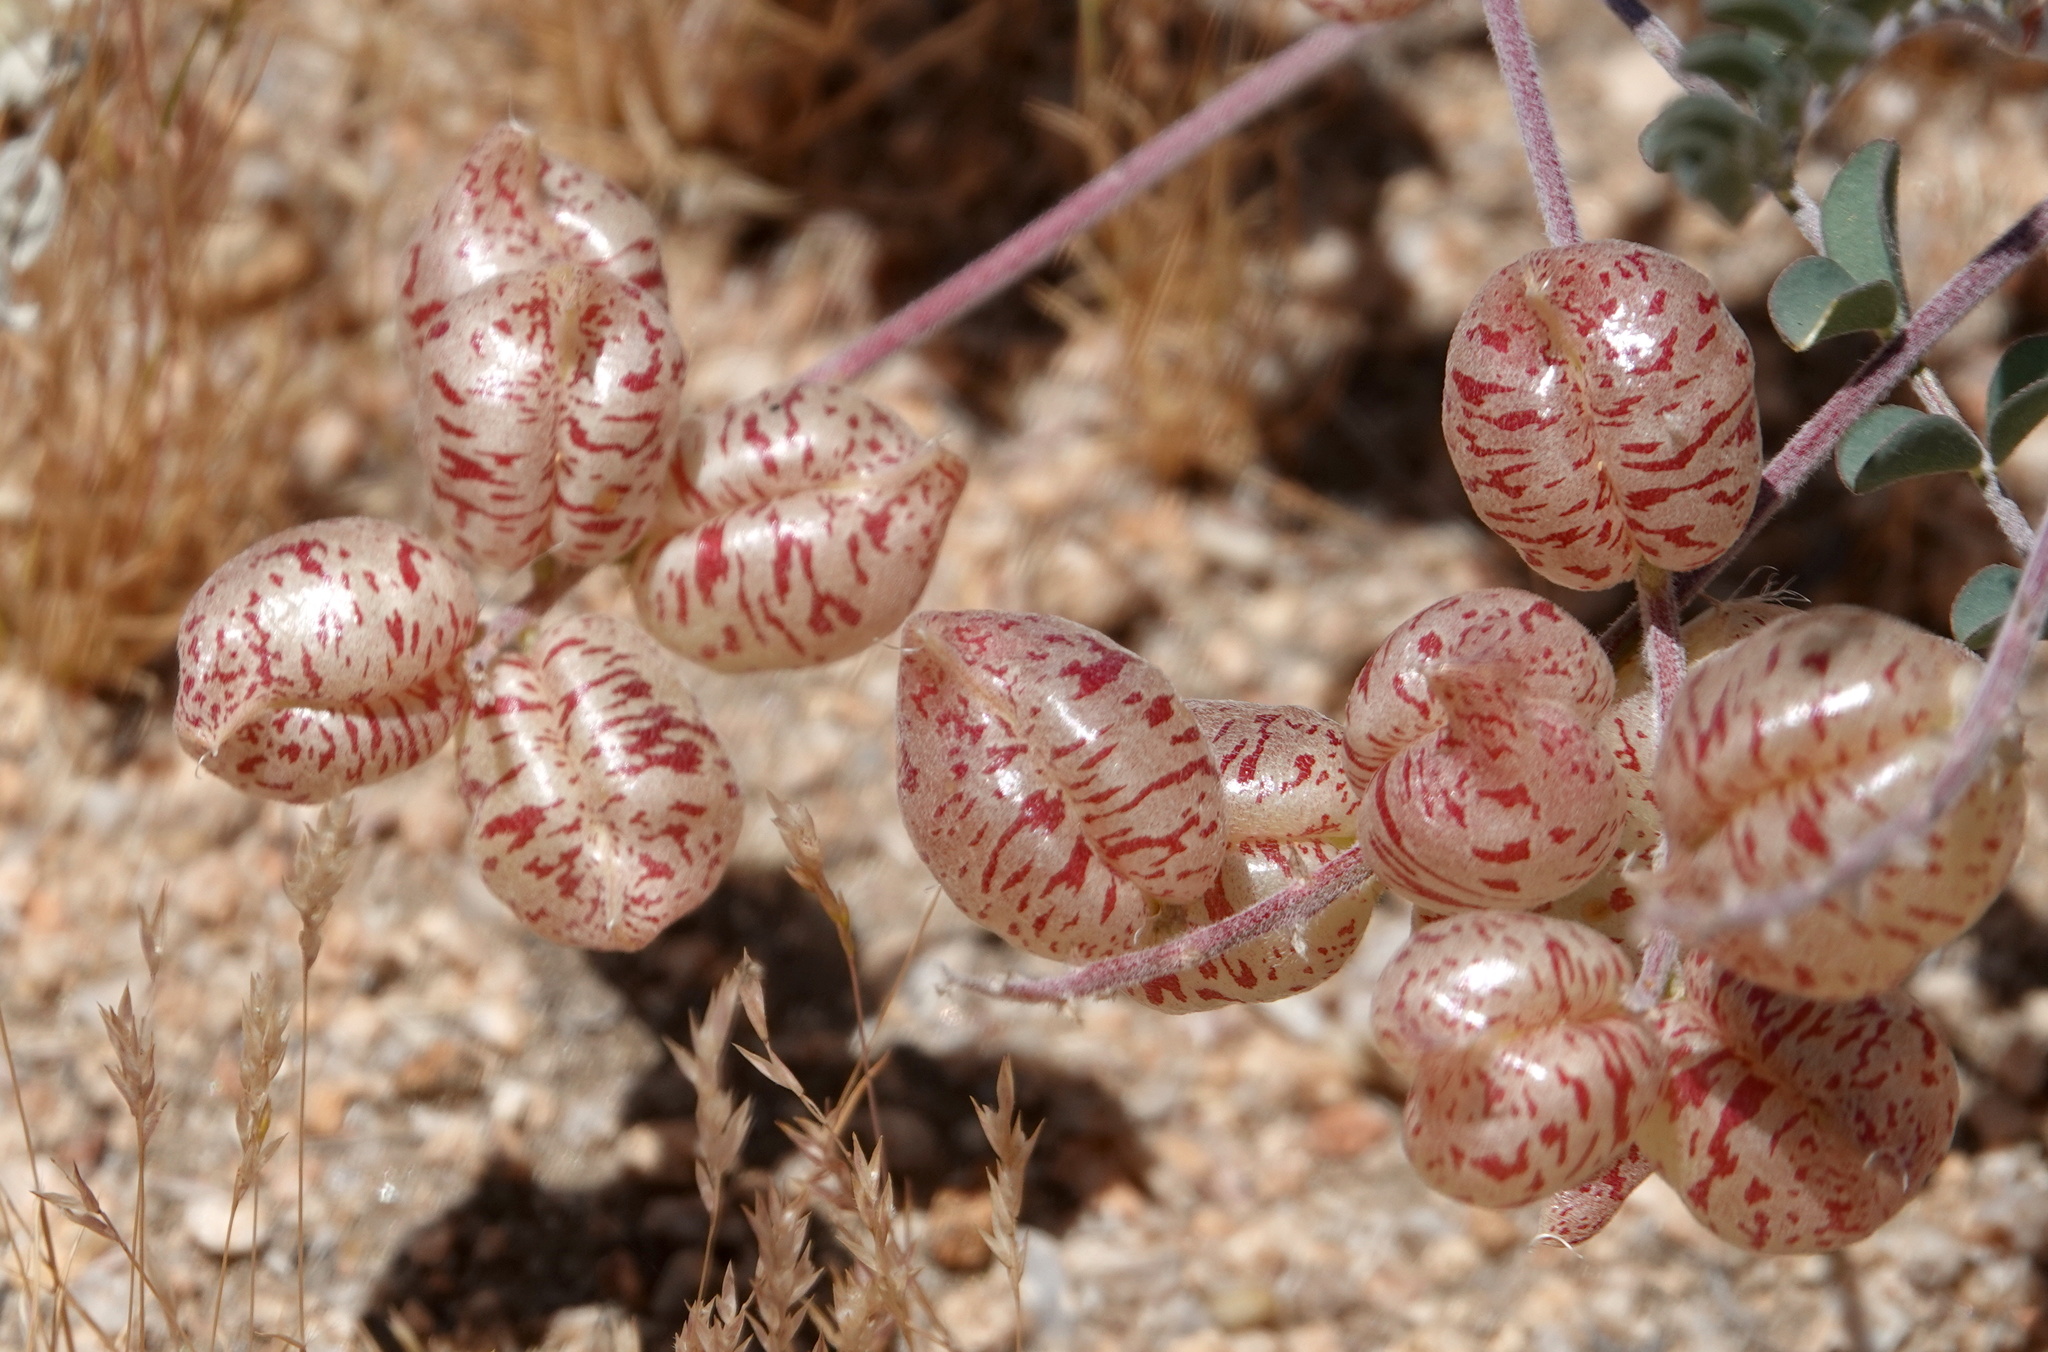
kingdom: Plantae
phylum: Tracheophyta
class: Magnoliopsida
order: Fabales
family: Fabaceae
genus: Astragalus
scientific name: Astragalus lentiginosus
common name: Freckled milkvetch
